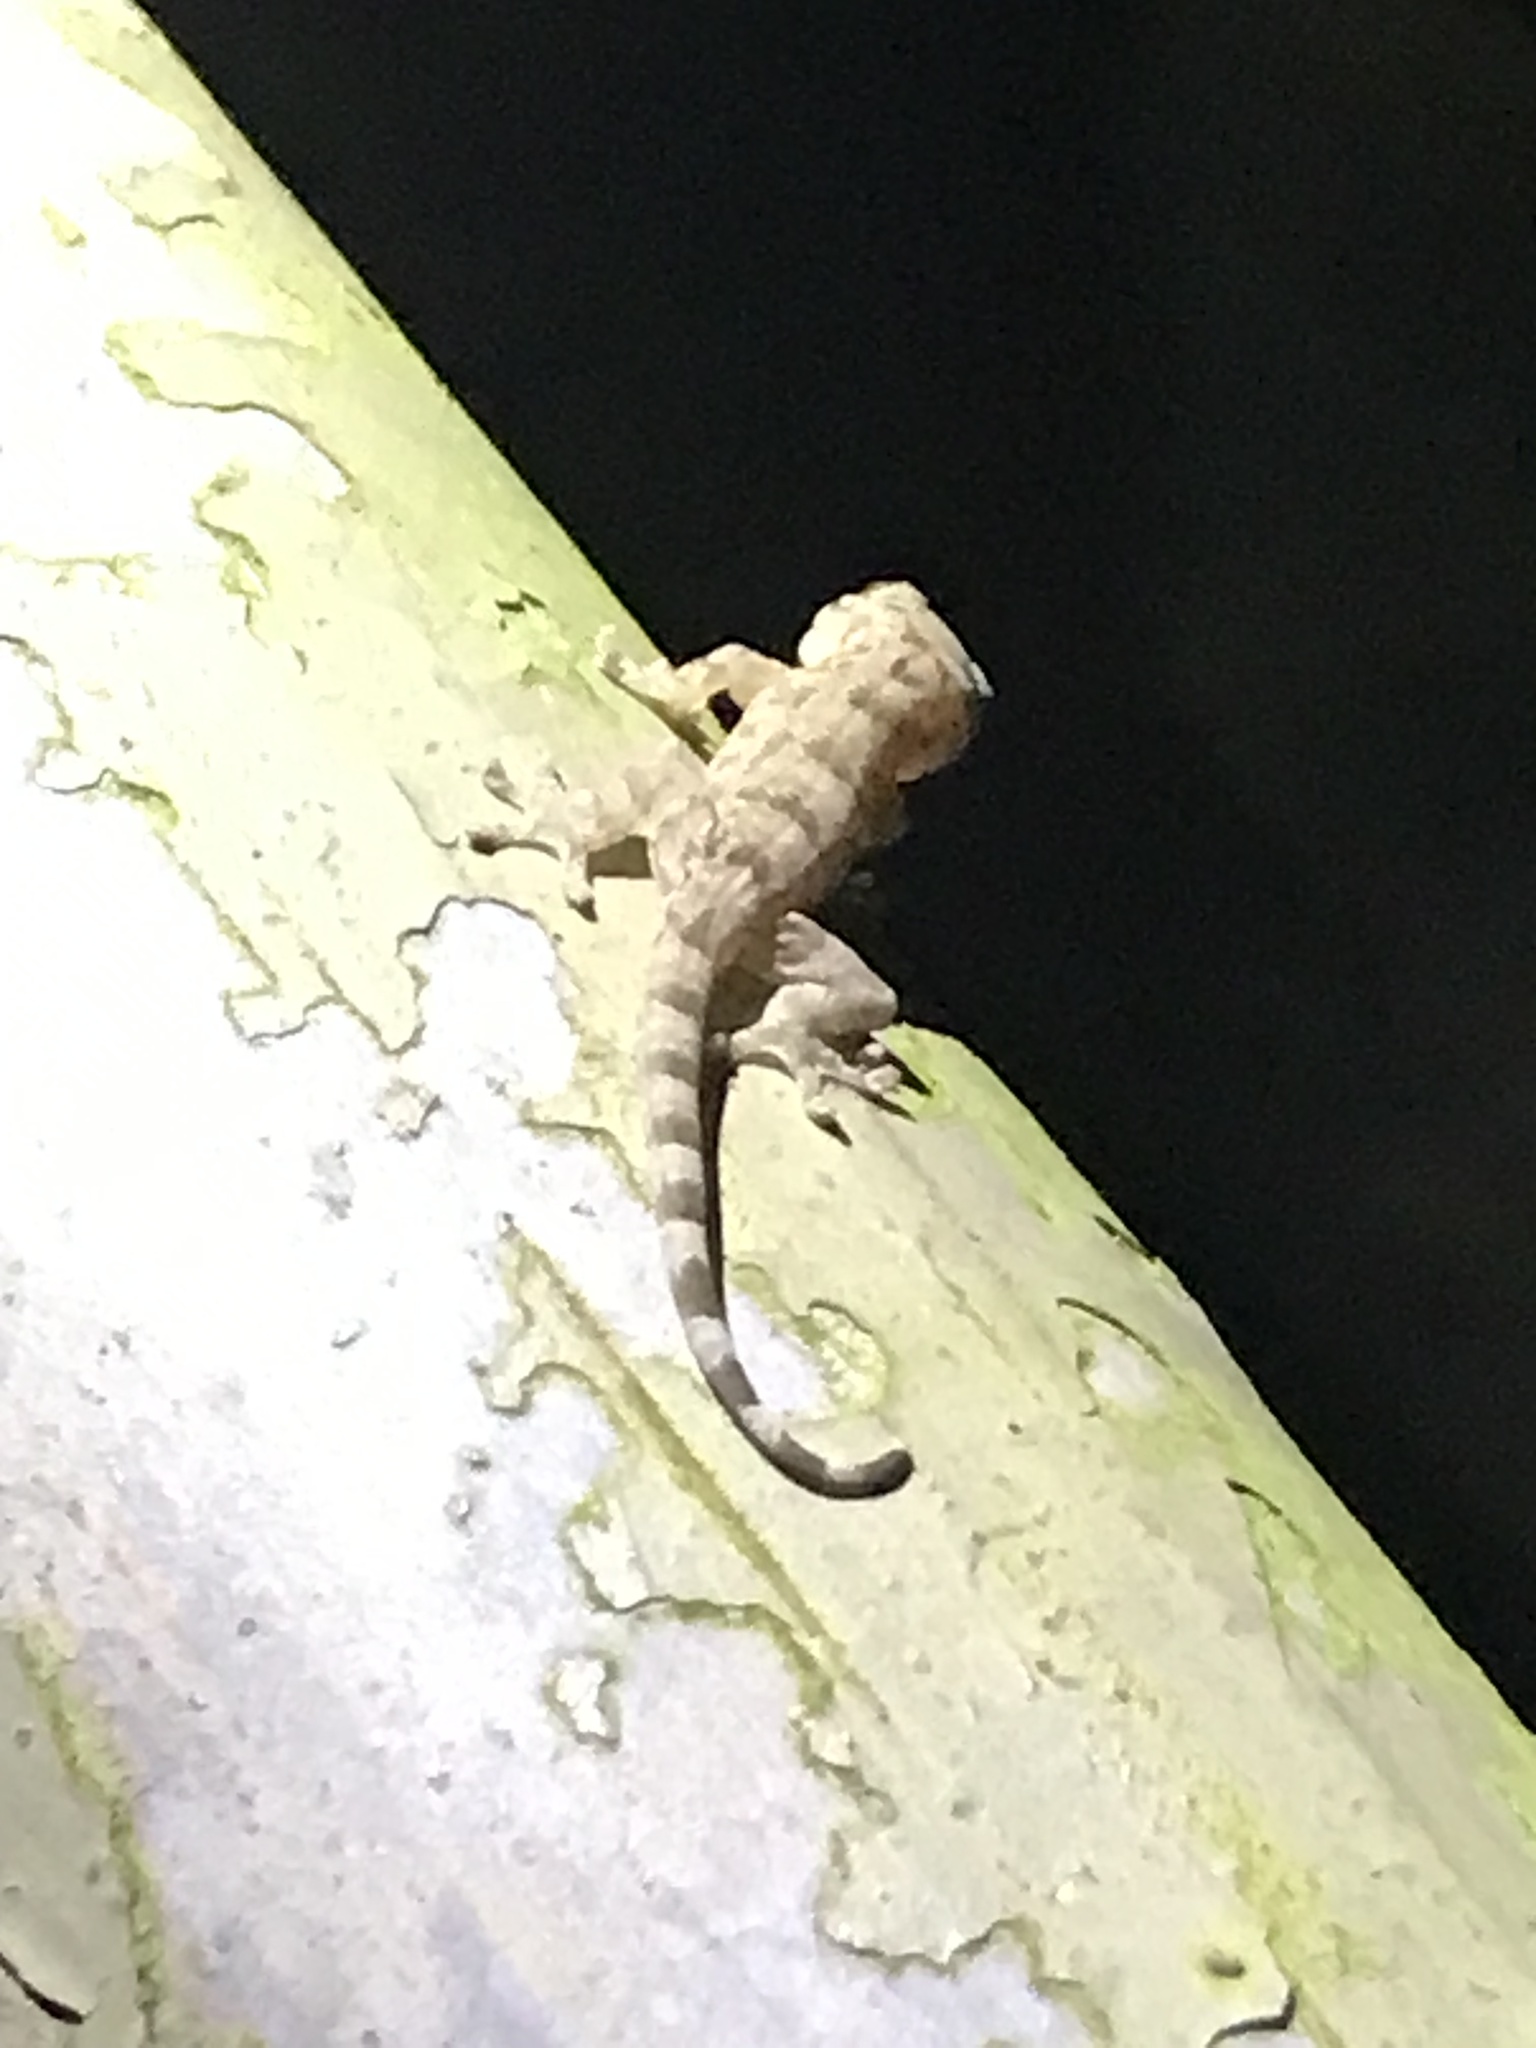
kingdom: Animalia
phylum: Chordata
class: Squamata
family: Gekkonidae
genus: Gekko
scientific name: Gekko chinensis
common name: Gray's chinese gecko
